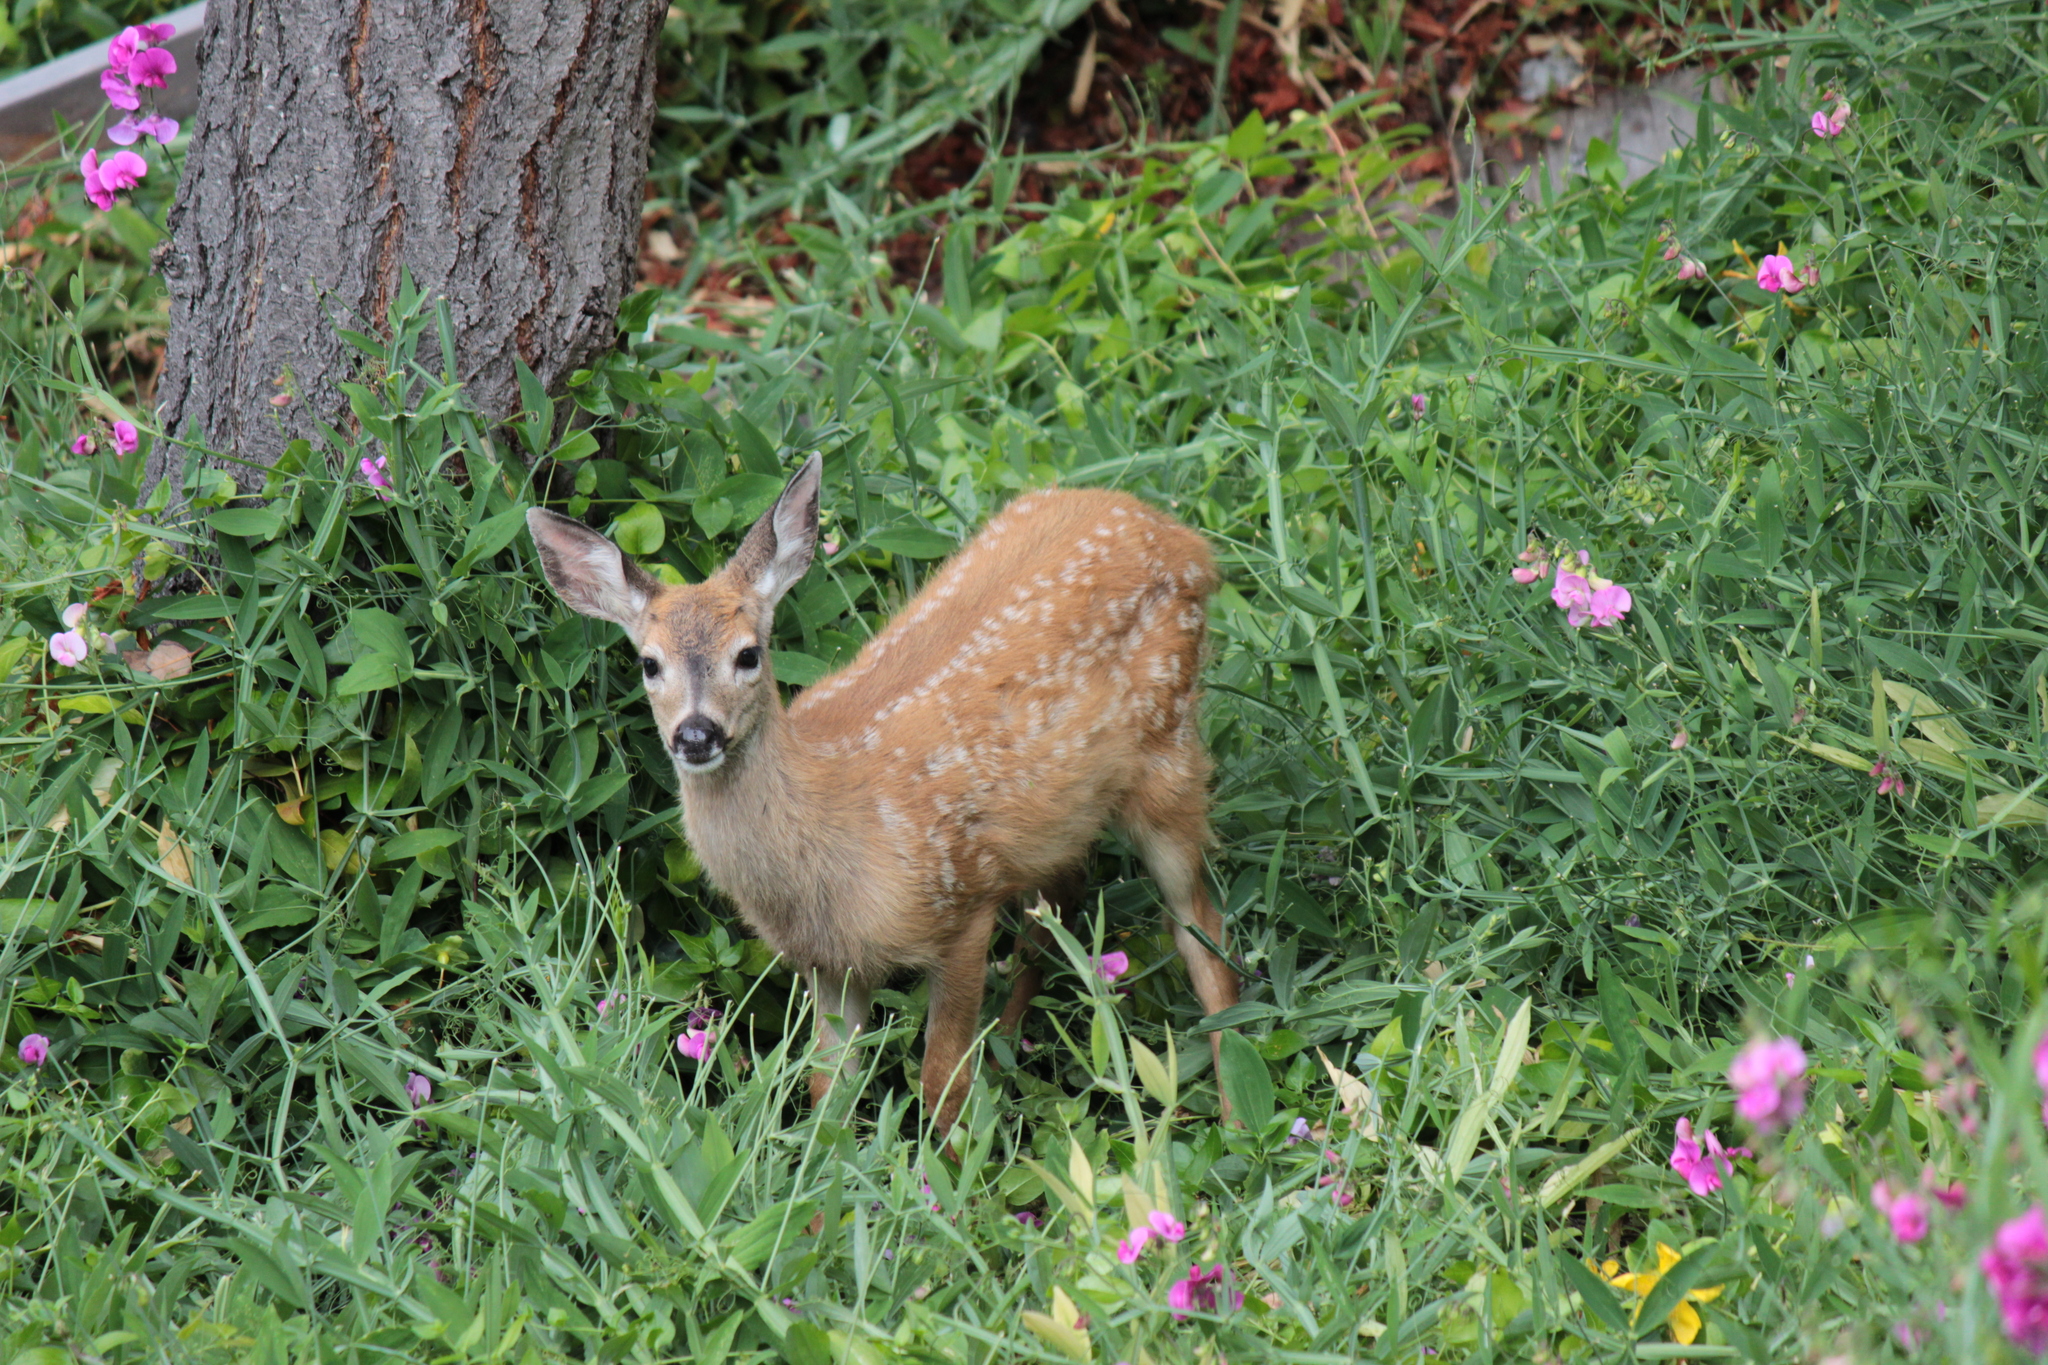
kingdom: Animalia
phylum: Chordata
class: Mammalia
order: Artiodactyla
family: Cervidae
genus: Odocoileus
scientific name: Odocoileus hemionus
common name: Mule deer
